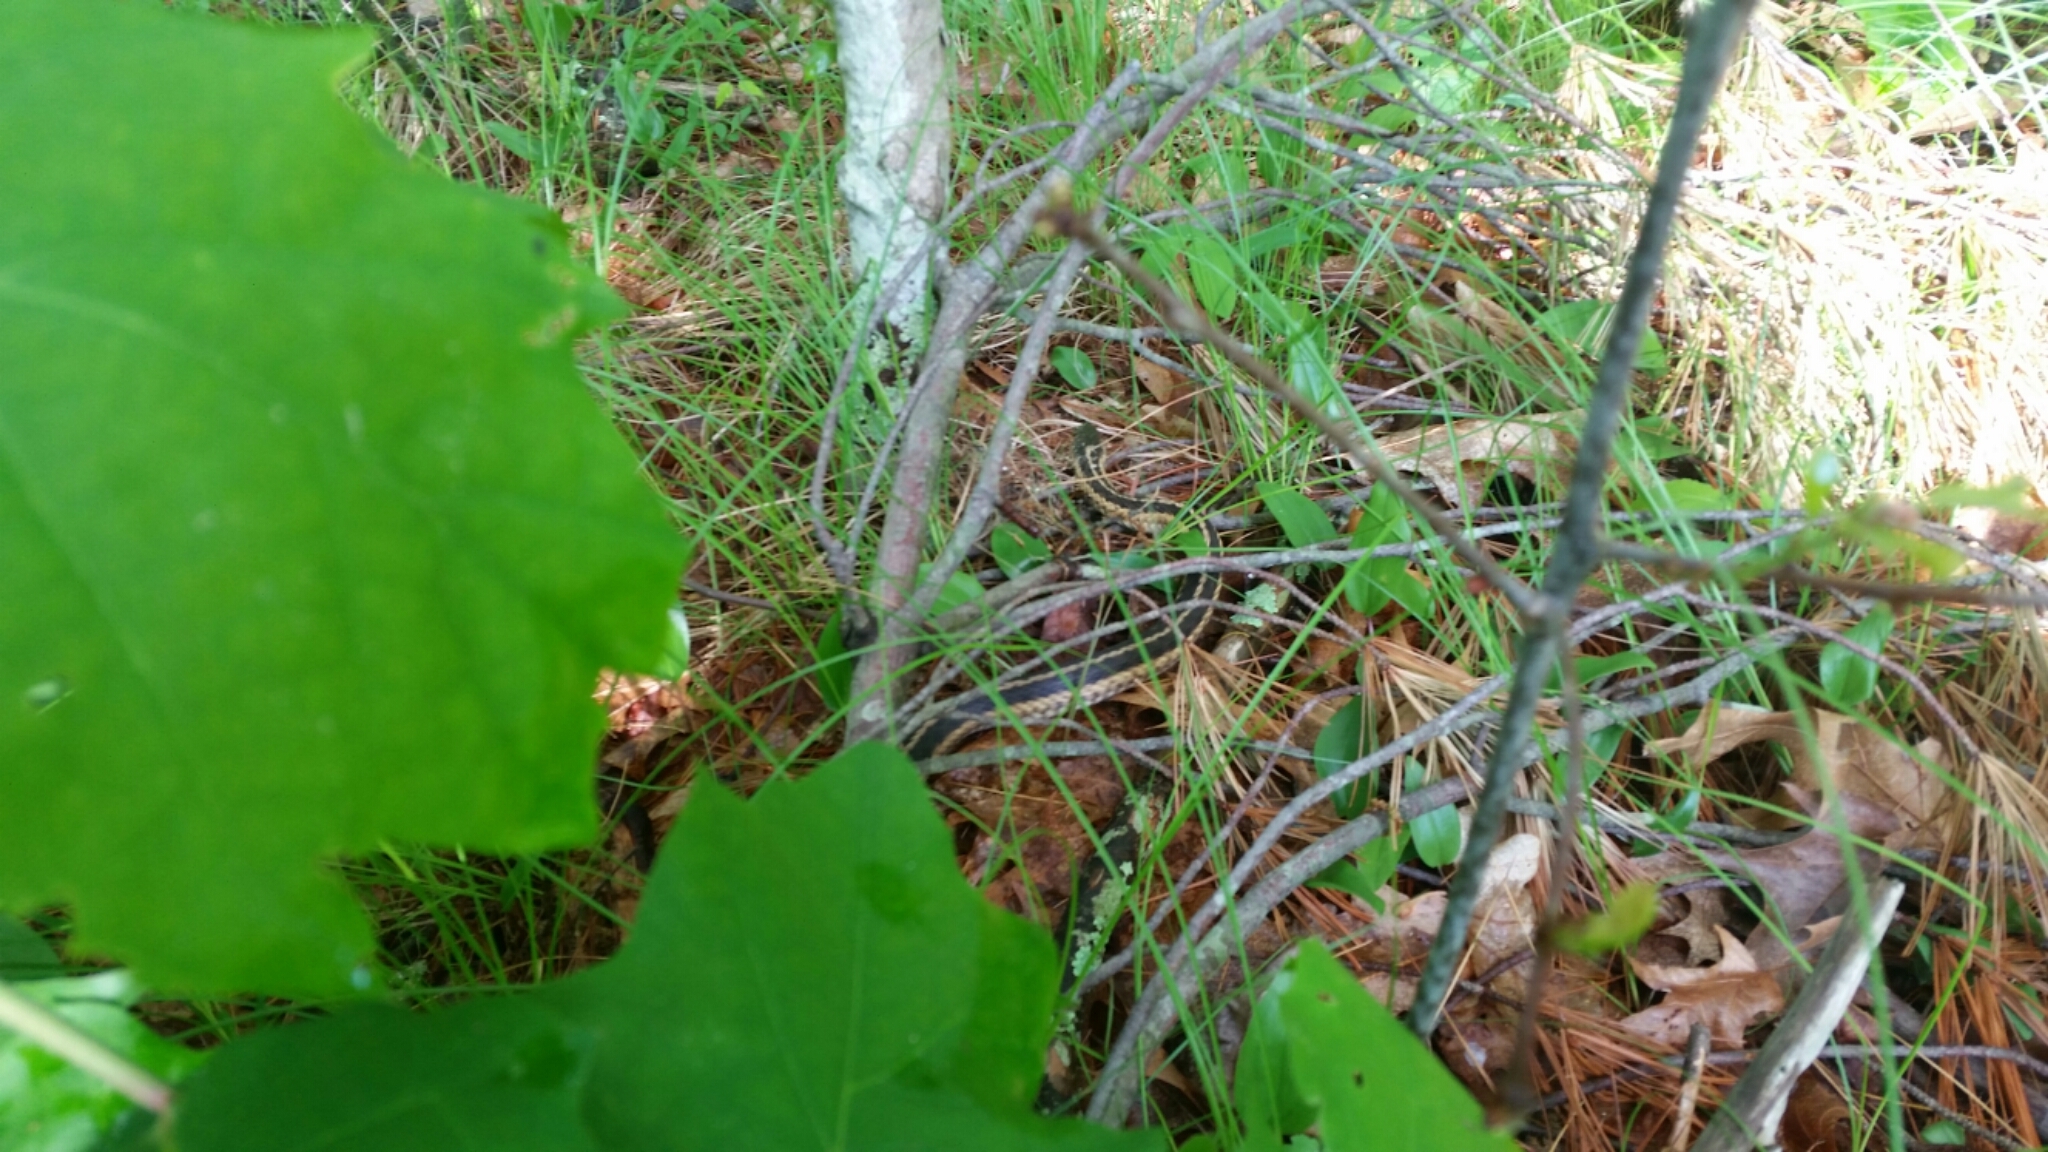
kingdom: Animalia
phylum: Chordata
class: Squamata
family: Colubridae
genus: Thamnophis
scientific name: Thamnophis sirtalis
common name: Common garter snake
